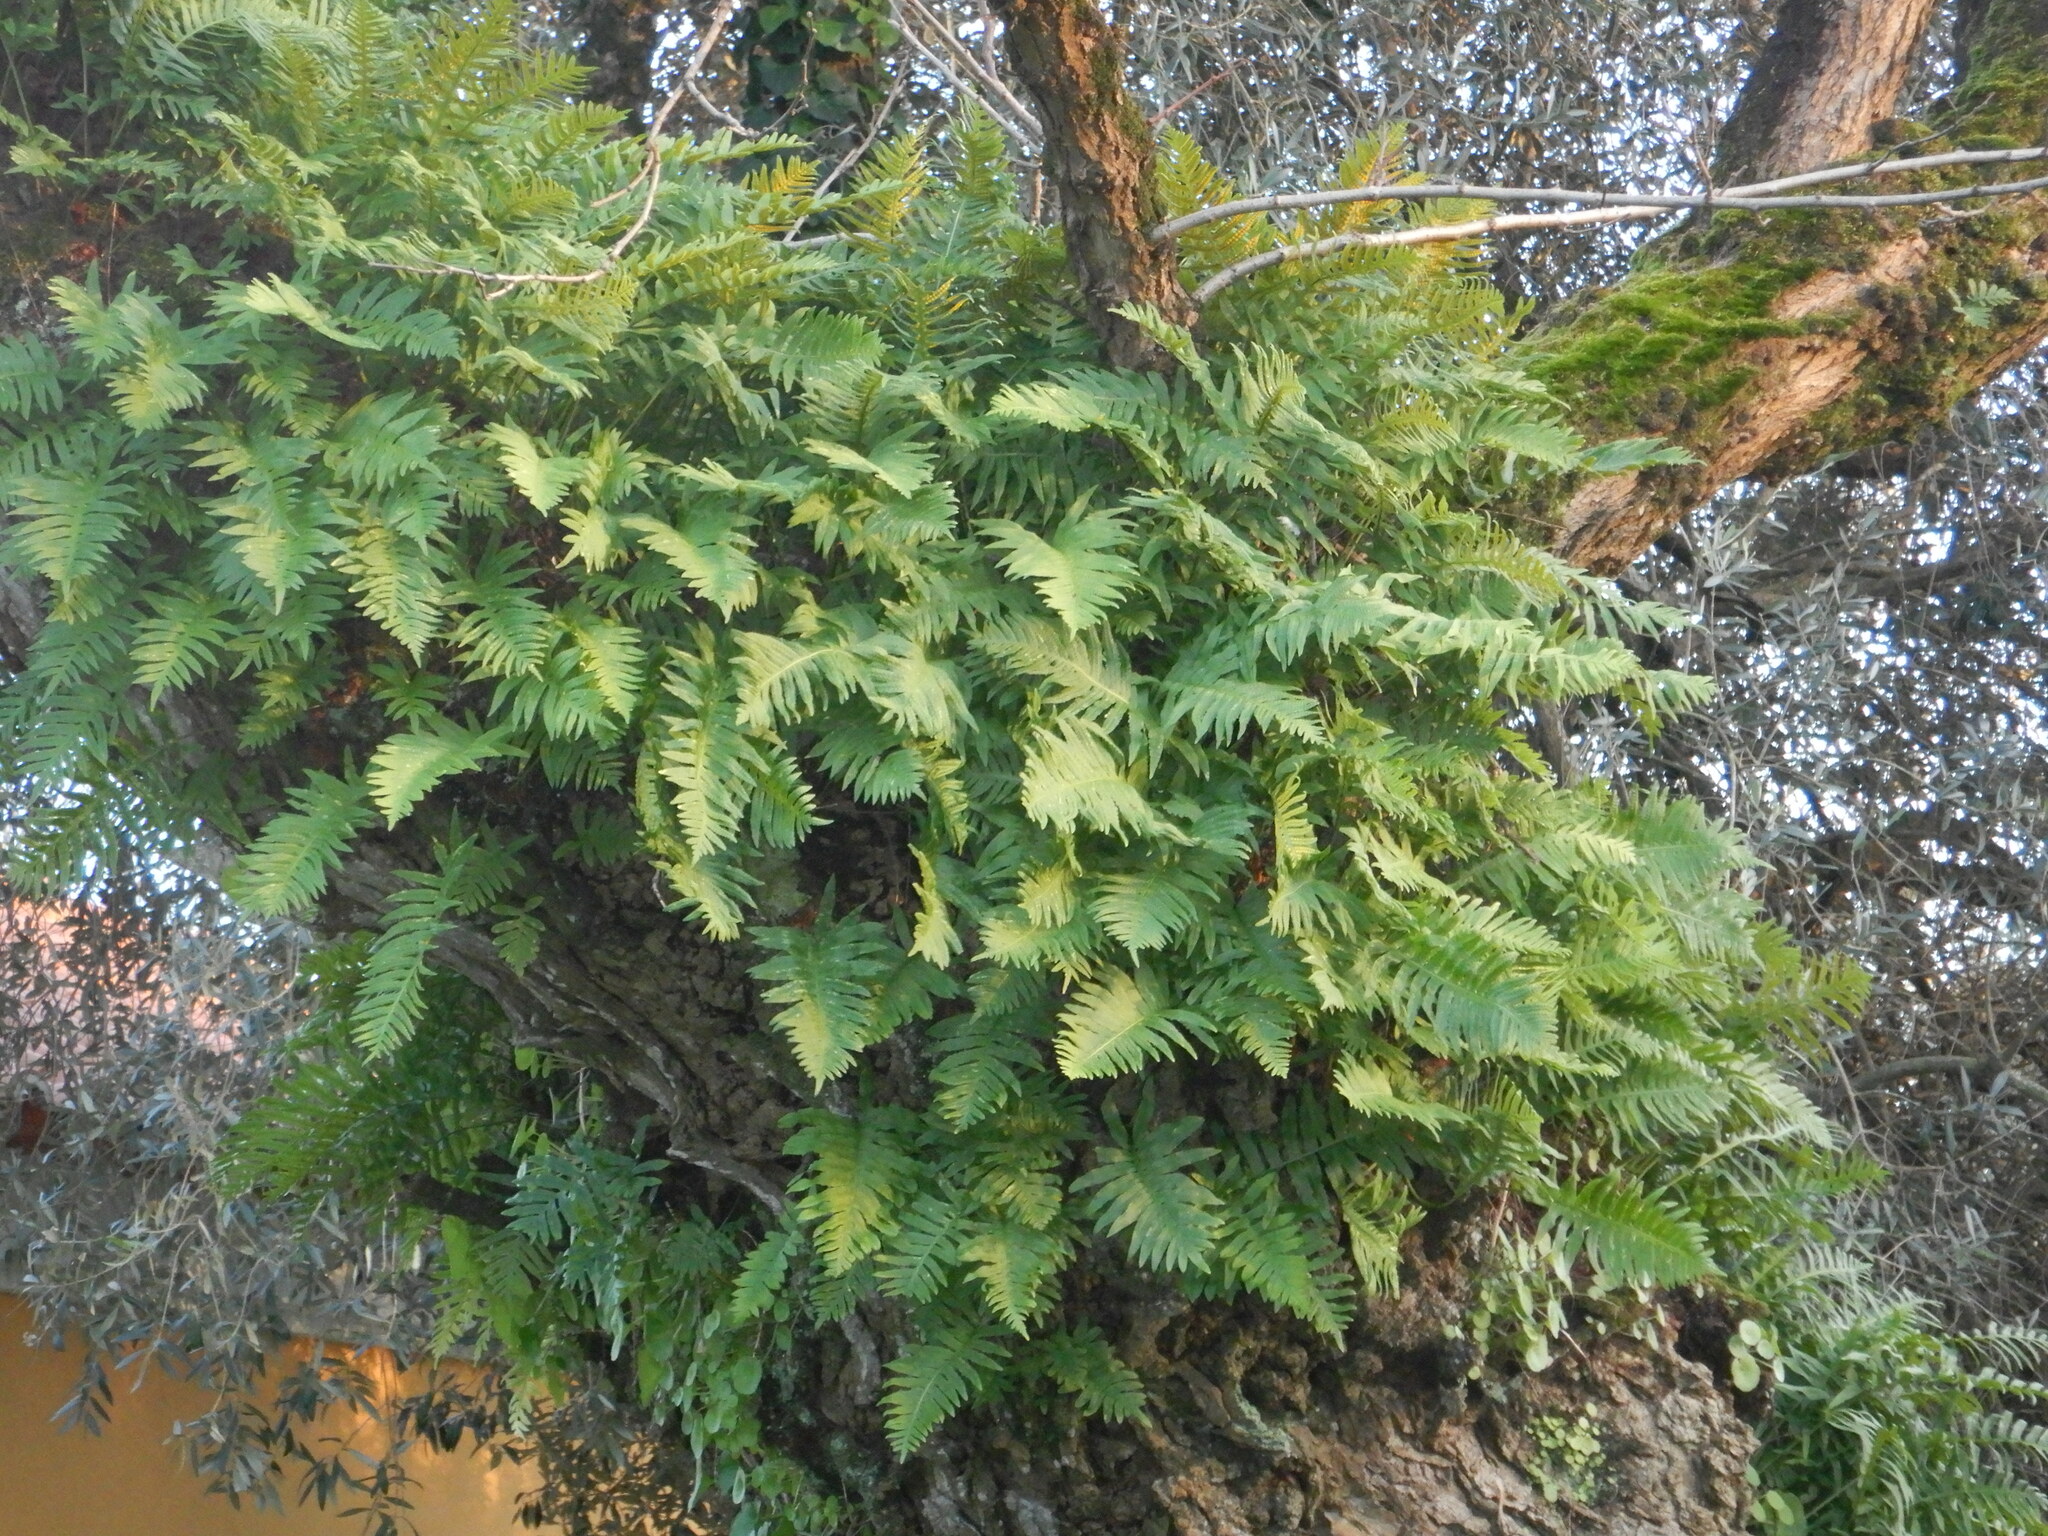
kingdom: Plantae
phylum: Tracheophyta
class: Polypodiopsida
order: Polypodiales
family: Polypodiaceae
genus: Polypodium
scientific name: Polypodium cambricum
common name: Southern polypody
